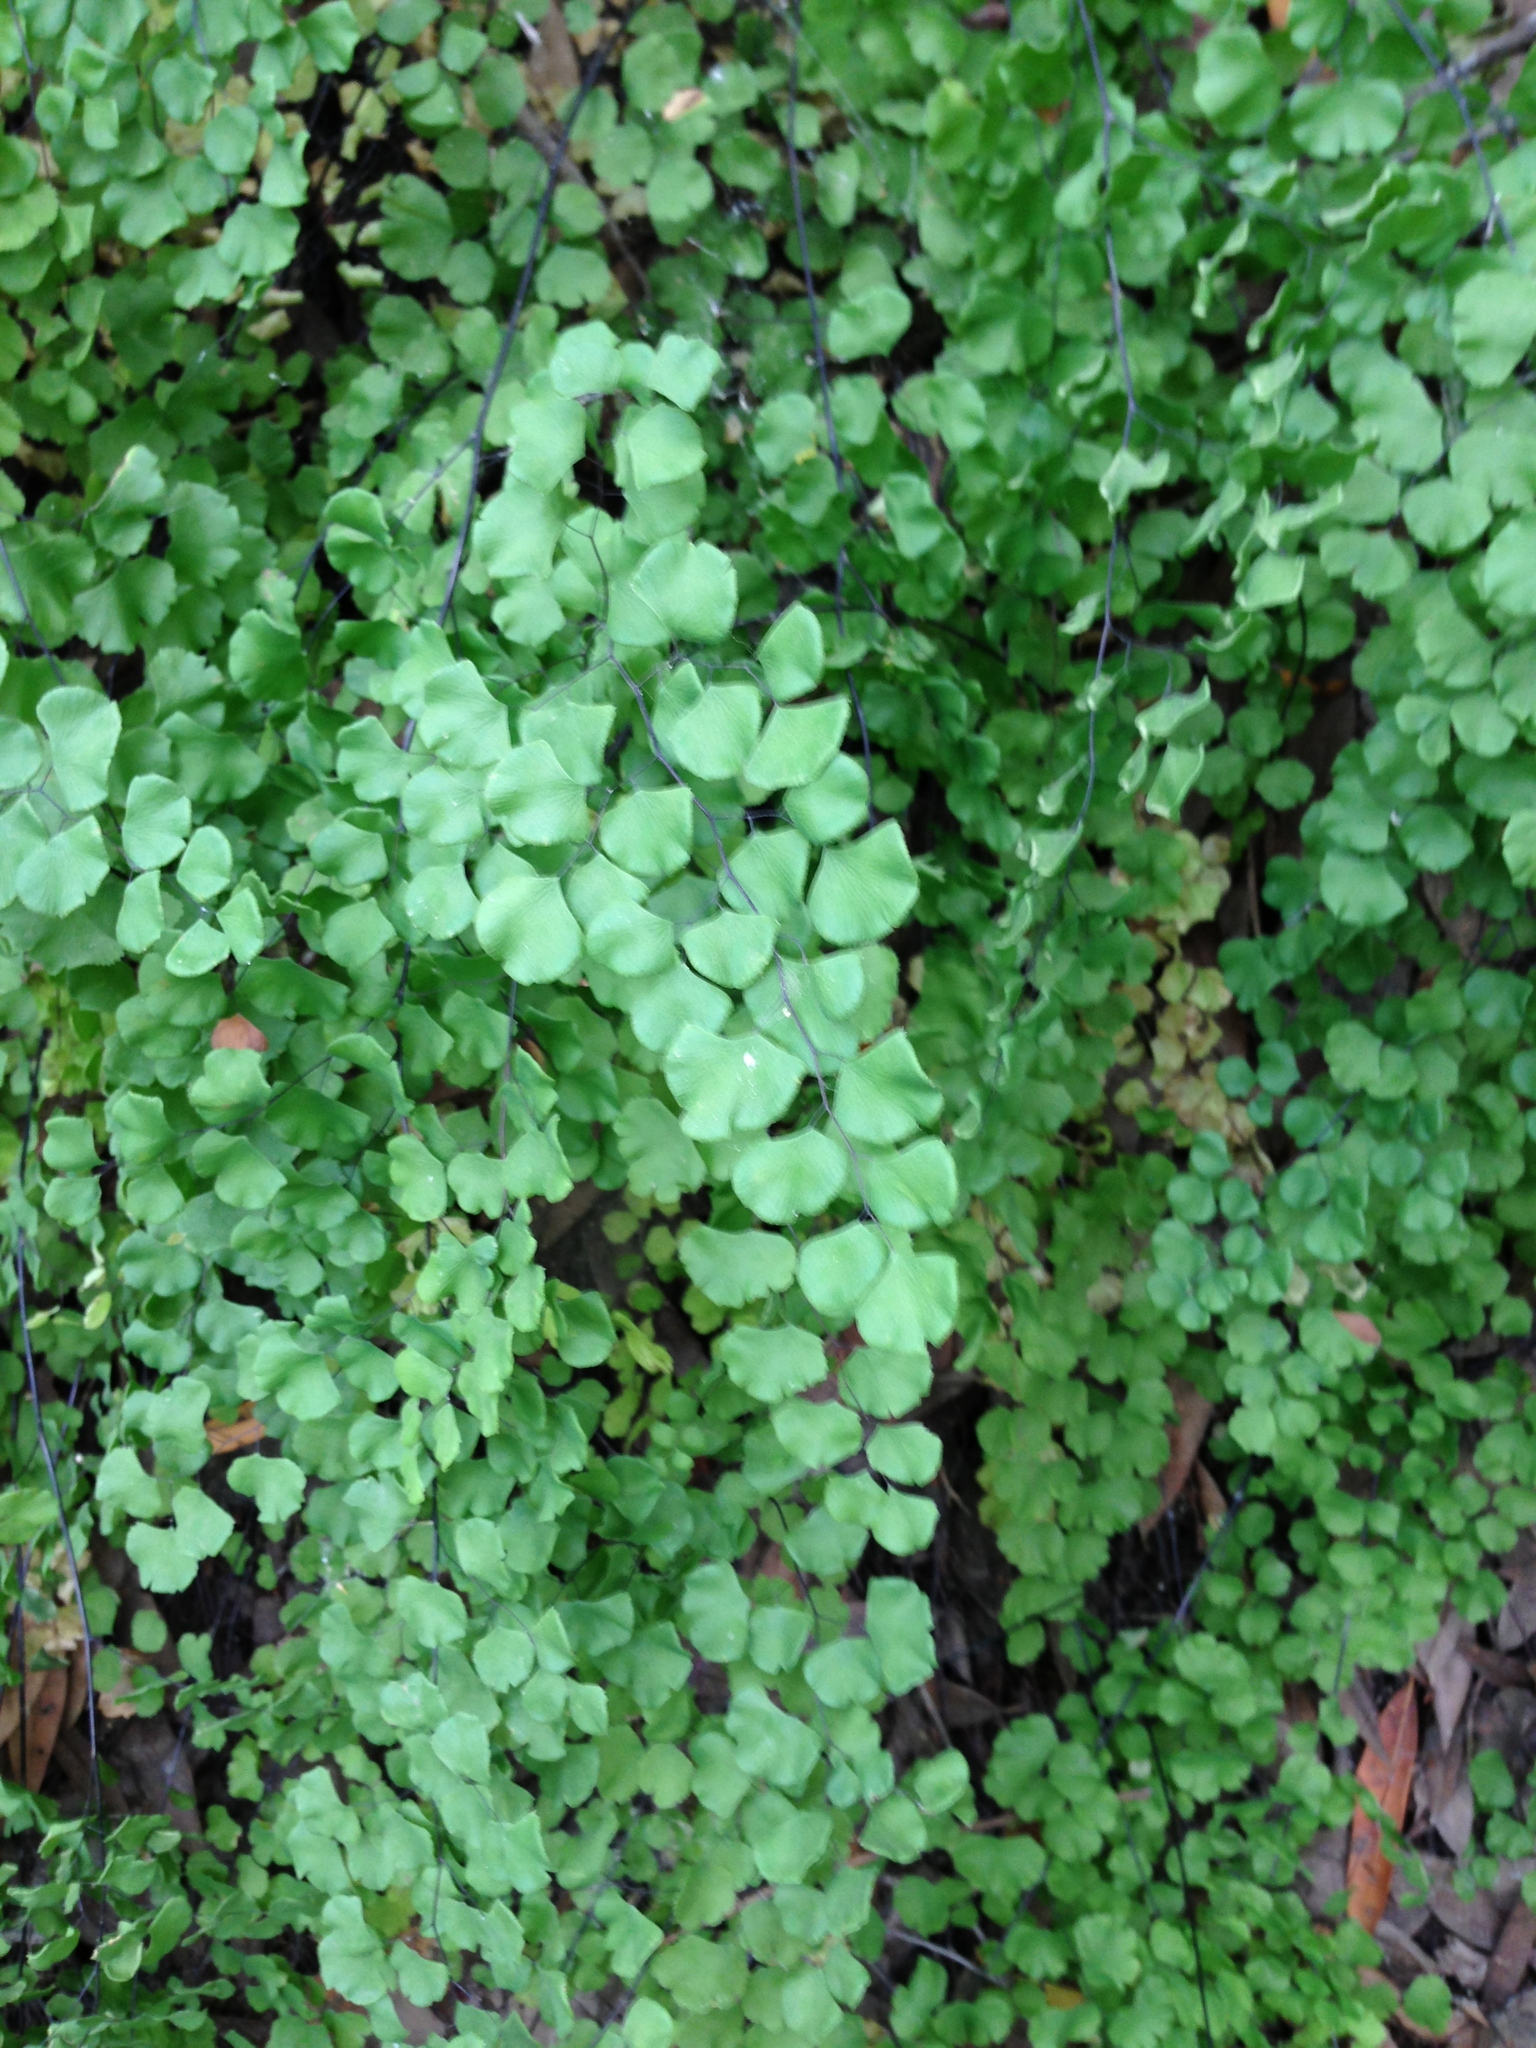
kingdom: Plantae
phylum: Tracheophyta
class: Polypodiopsida
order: Polypodiales
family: Pteridaceae
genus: Adiantum
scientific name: Adiantum jordanii
